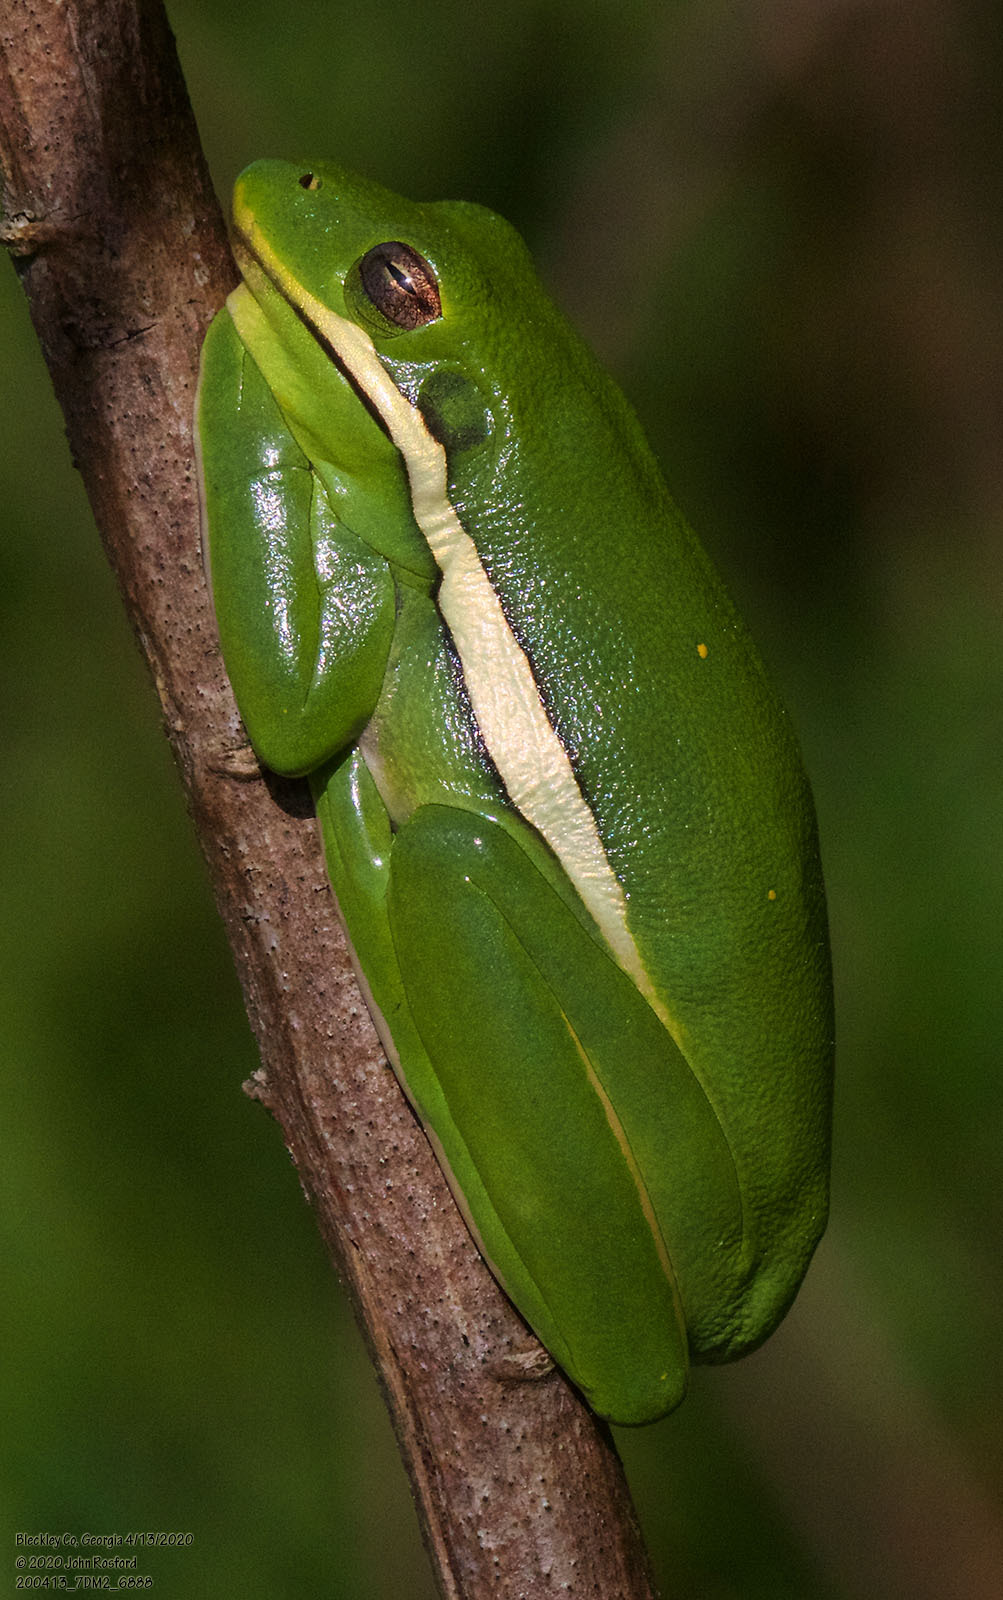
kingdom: Animalia
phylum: Chordata
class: Amphibia
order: Anura
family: Hylidae
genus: Dryophytes
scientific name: Dryophytes cinereus
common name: Green treefrog
